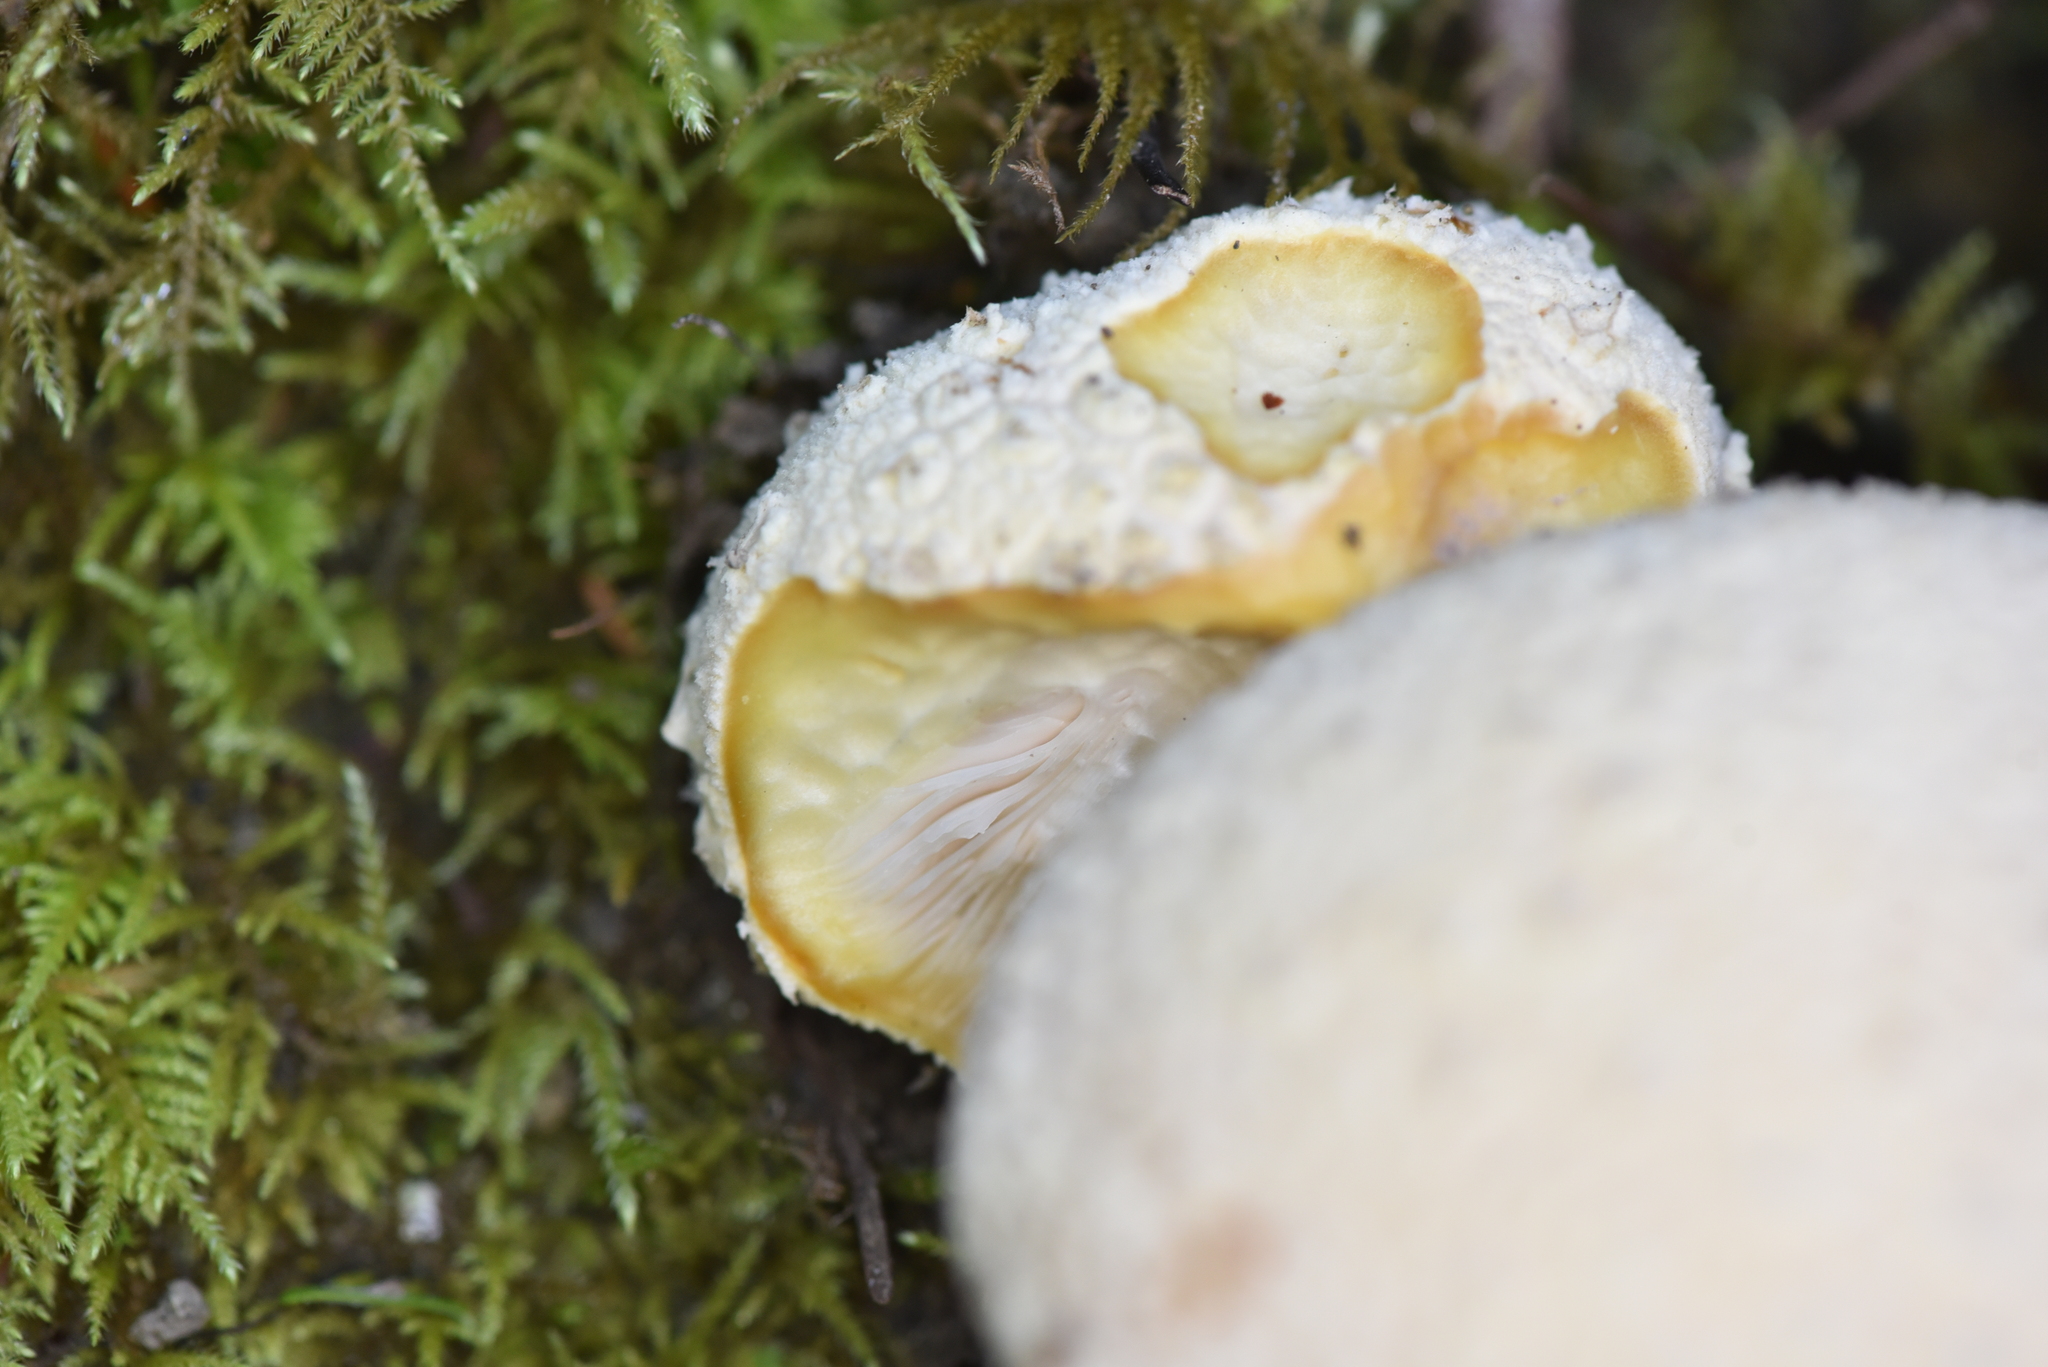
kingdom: Fungi
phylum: Basidiomycota
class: Agaricomycetes
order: Agaricales
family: Amanitaceae
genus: Amanita
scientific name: Amanita aprica
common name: Sunshine amanita
